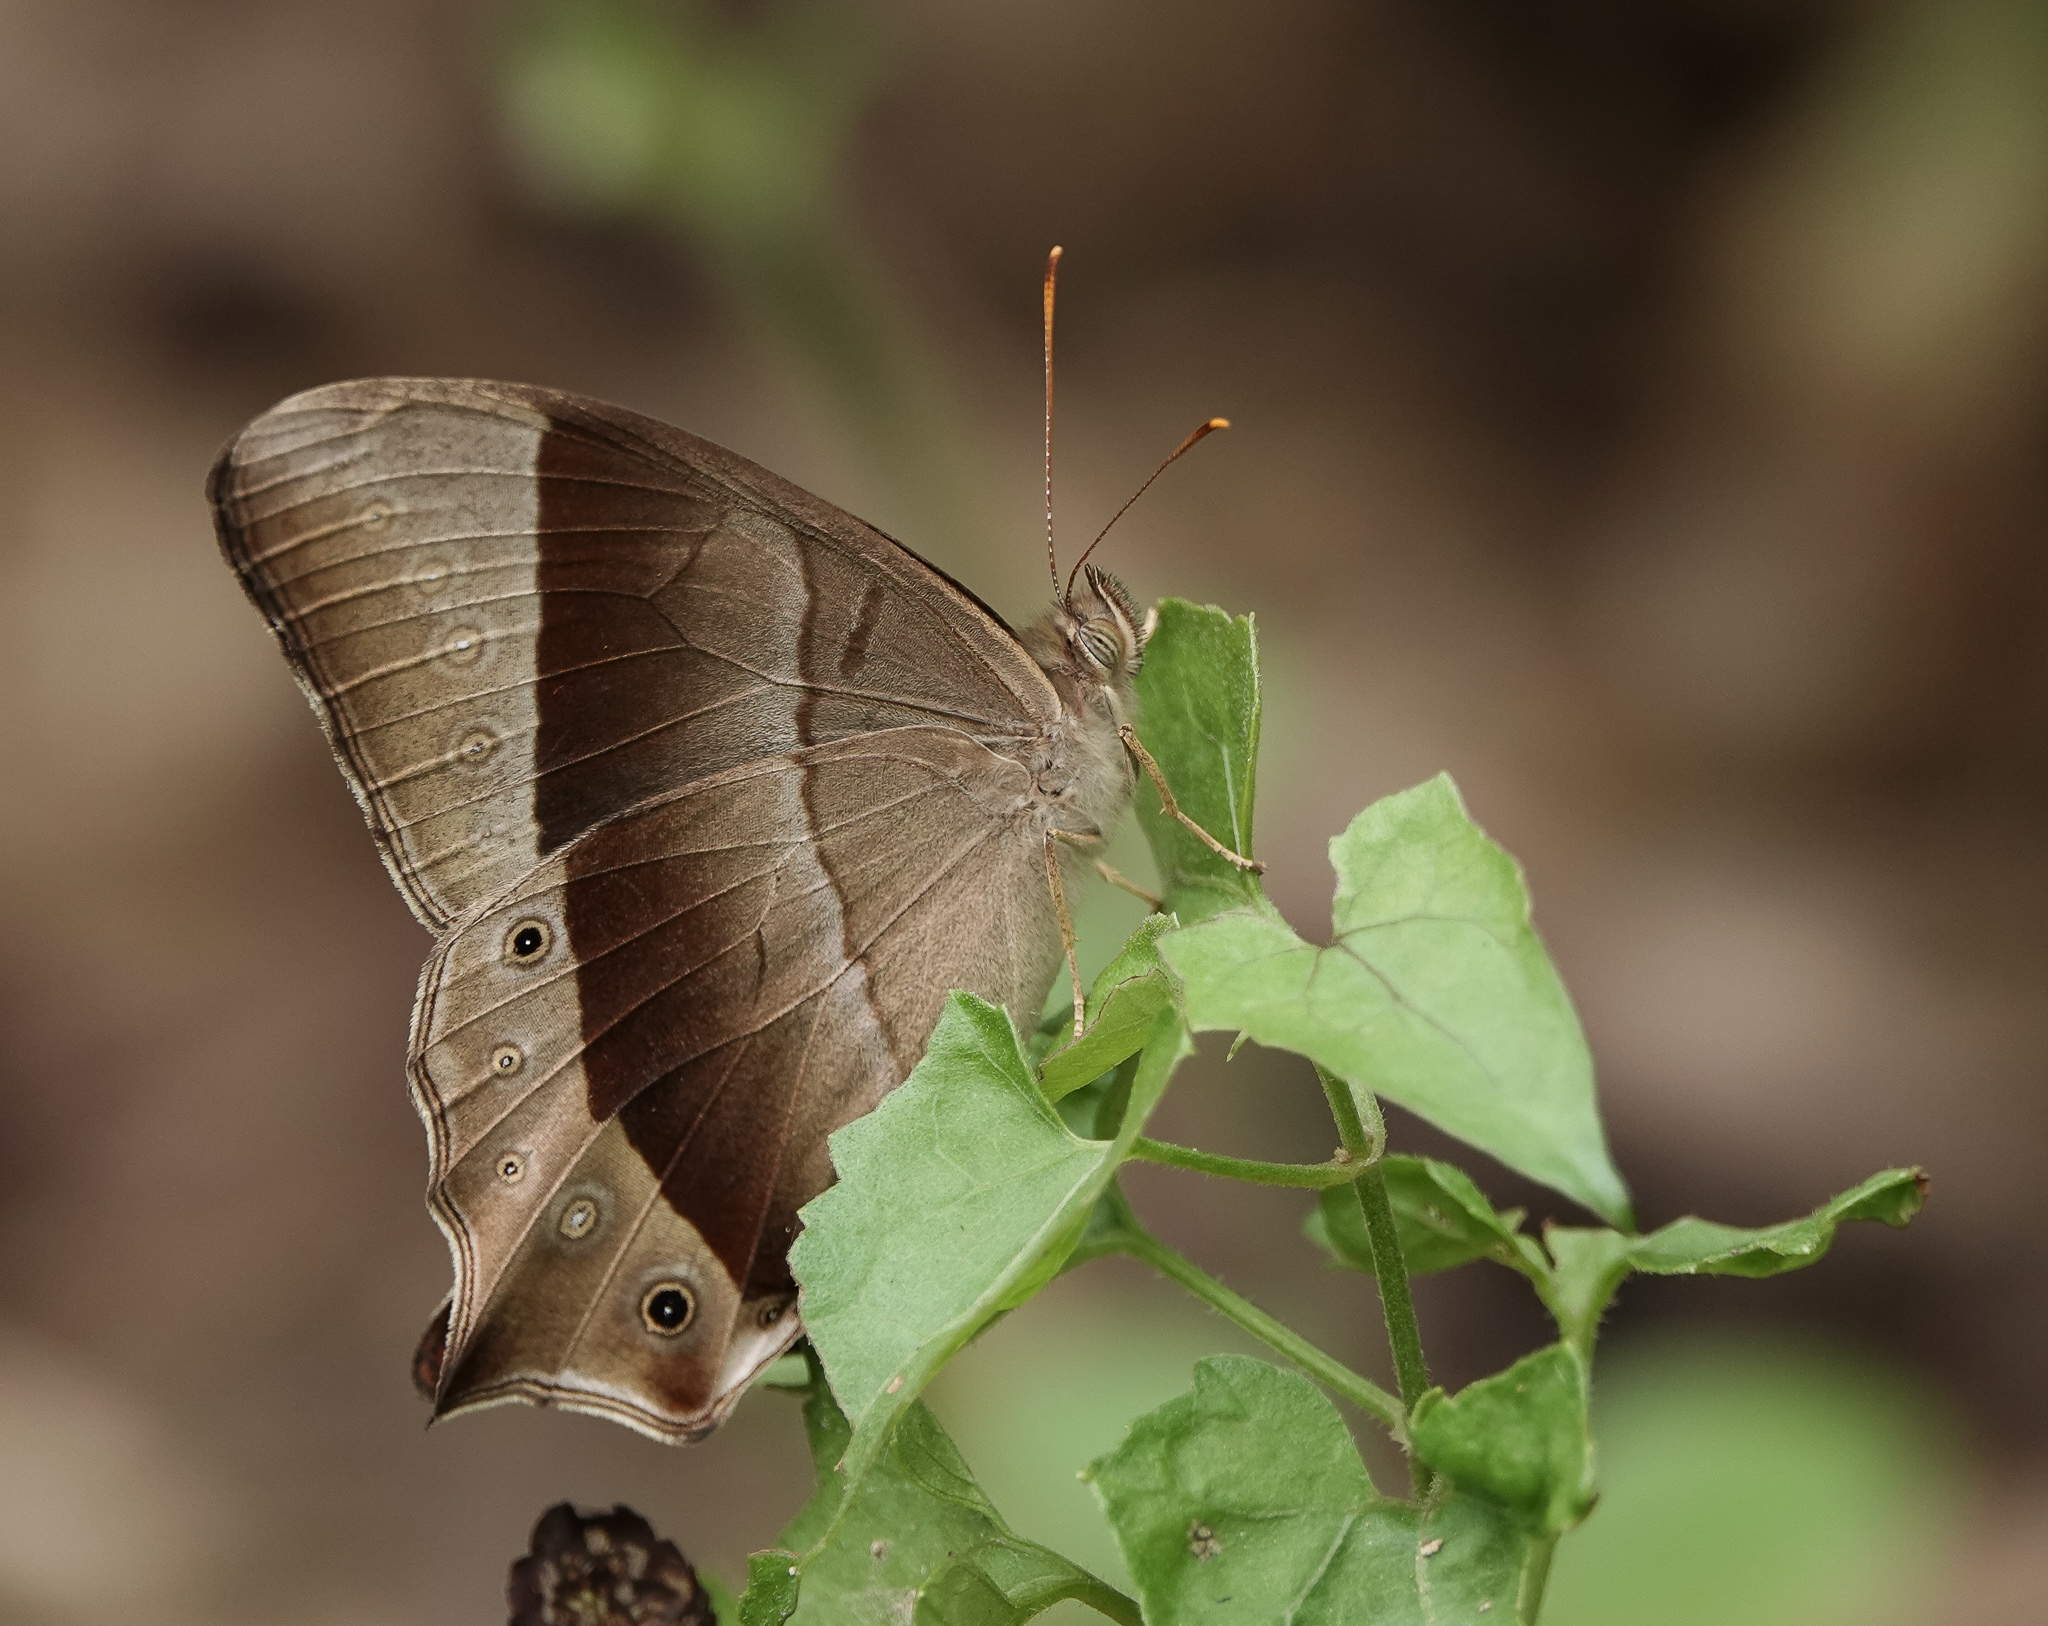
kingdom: Animalia
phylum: Arthropoda
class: Insecta
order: Lepidoptera
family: Nymphalidae
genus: Lethe
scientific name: Lethe vindhya
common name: Black forester
